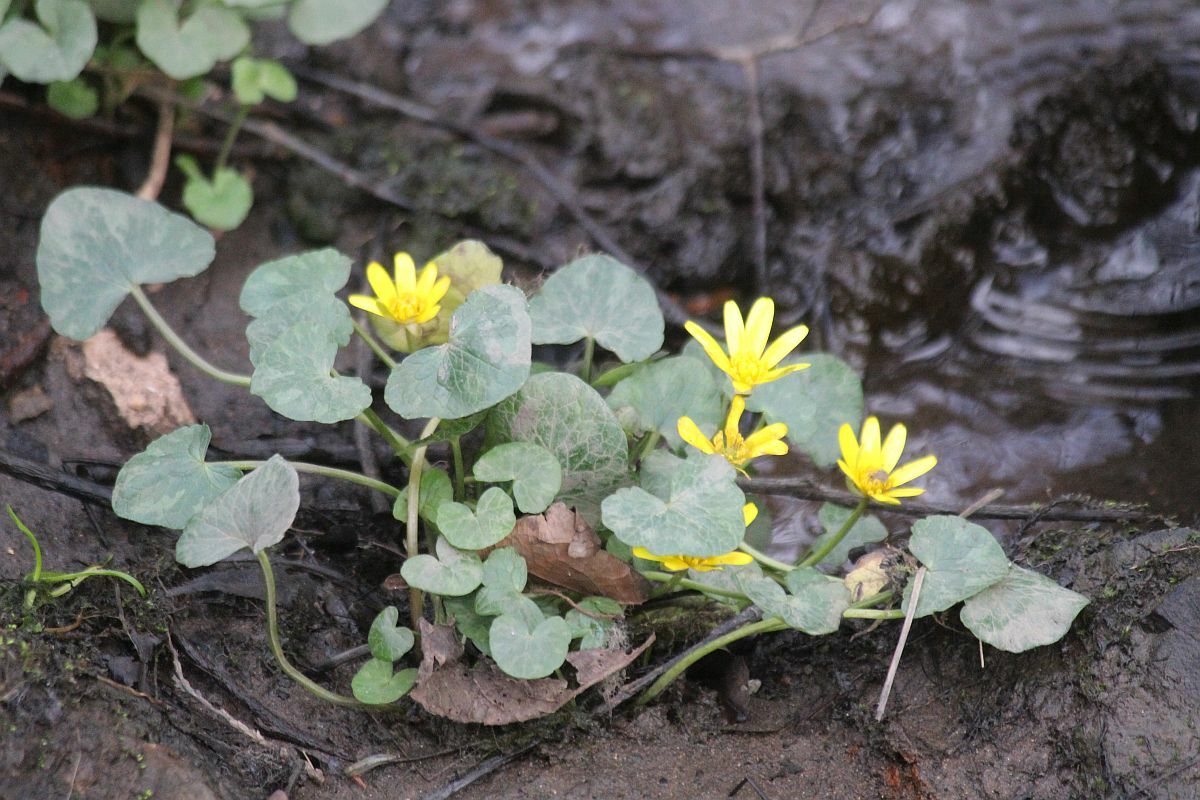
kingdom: Plantae
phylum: Tracheophyta
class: Magnoliopsida
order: Ranunculales
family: Ranunculaceae
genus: Ficaria
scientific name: Ficaria verna
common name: Lesser celandine
